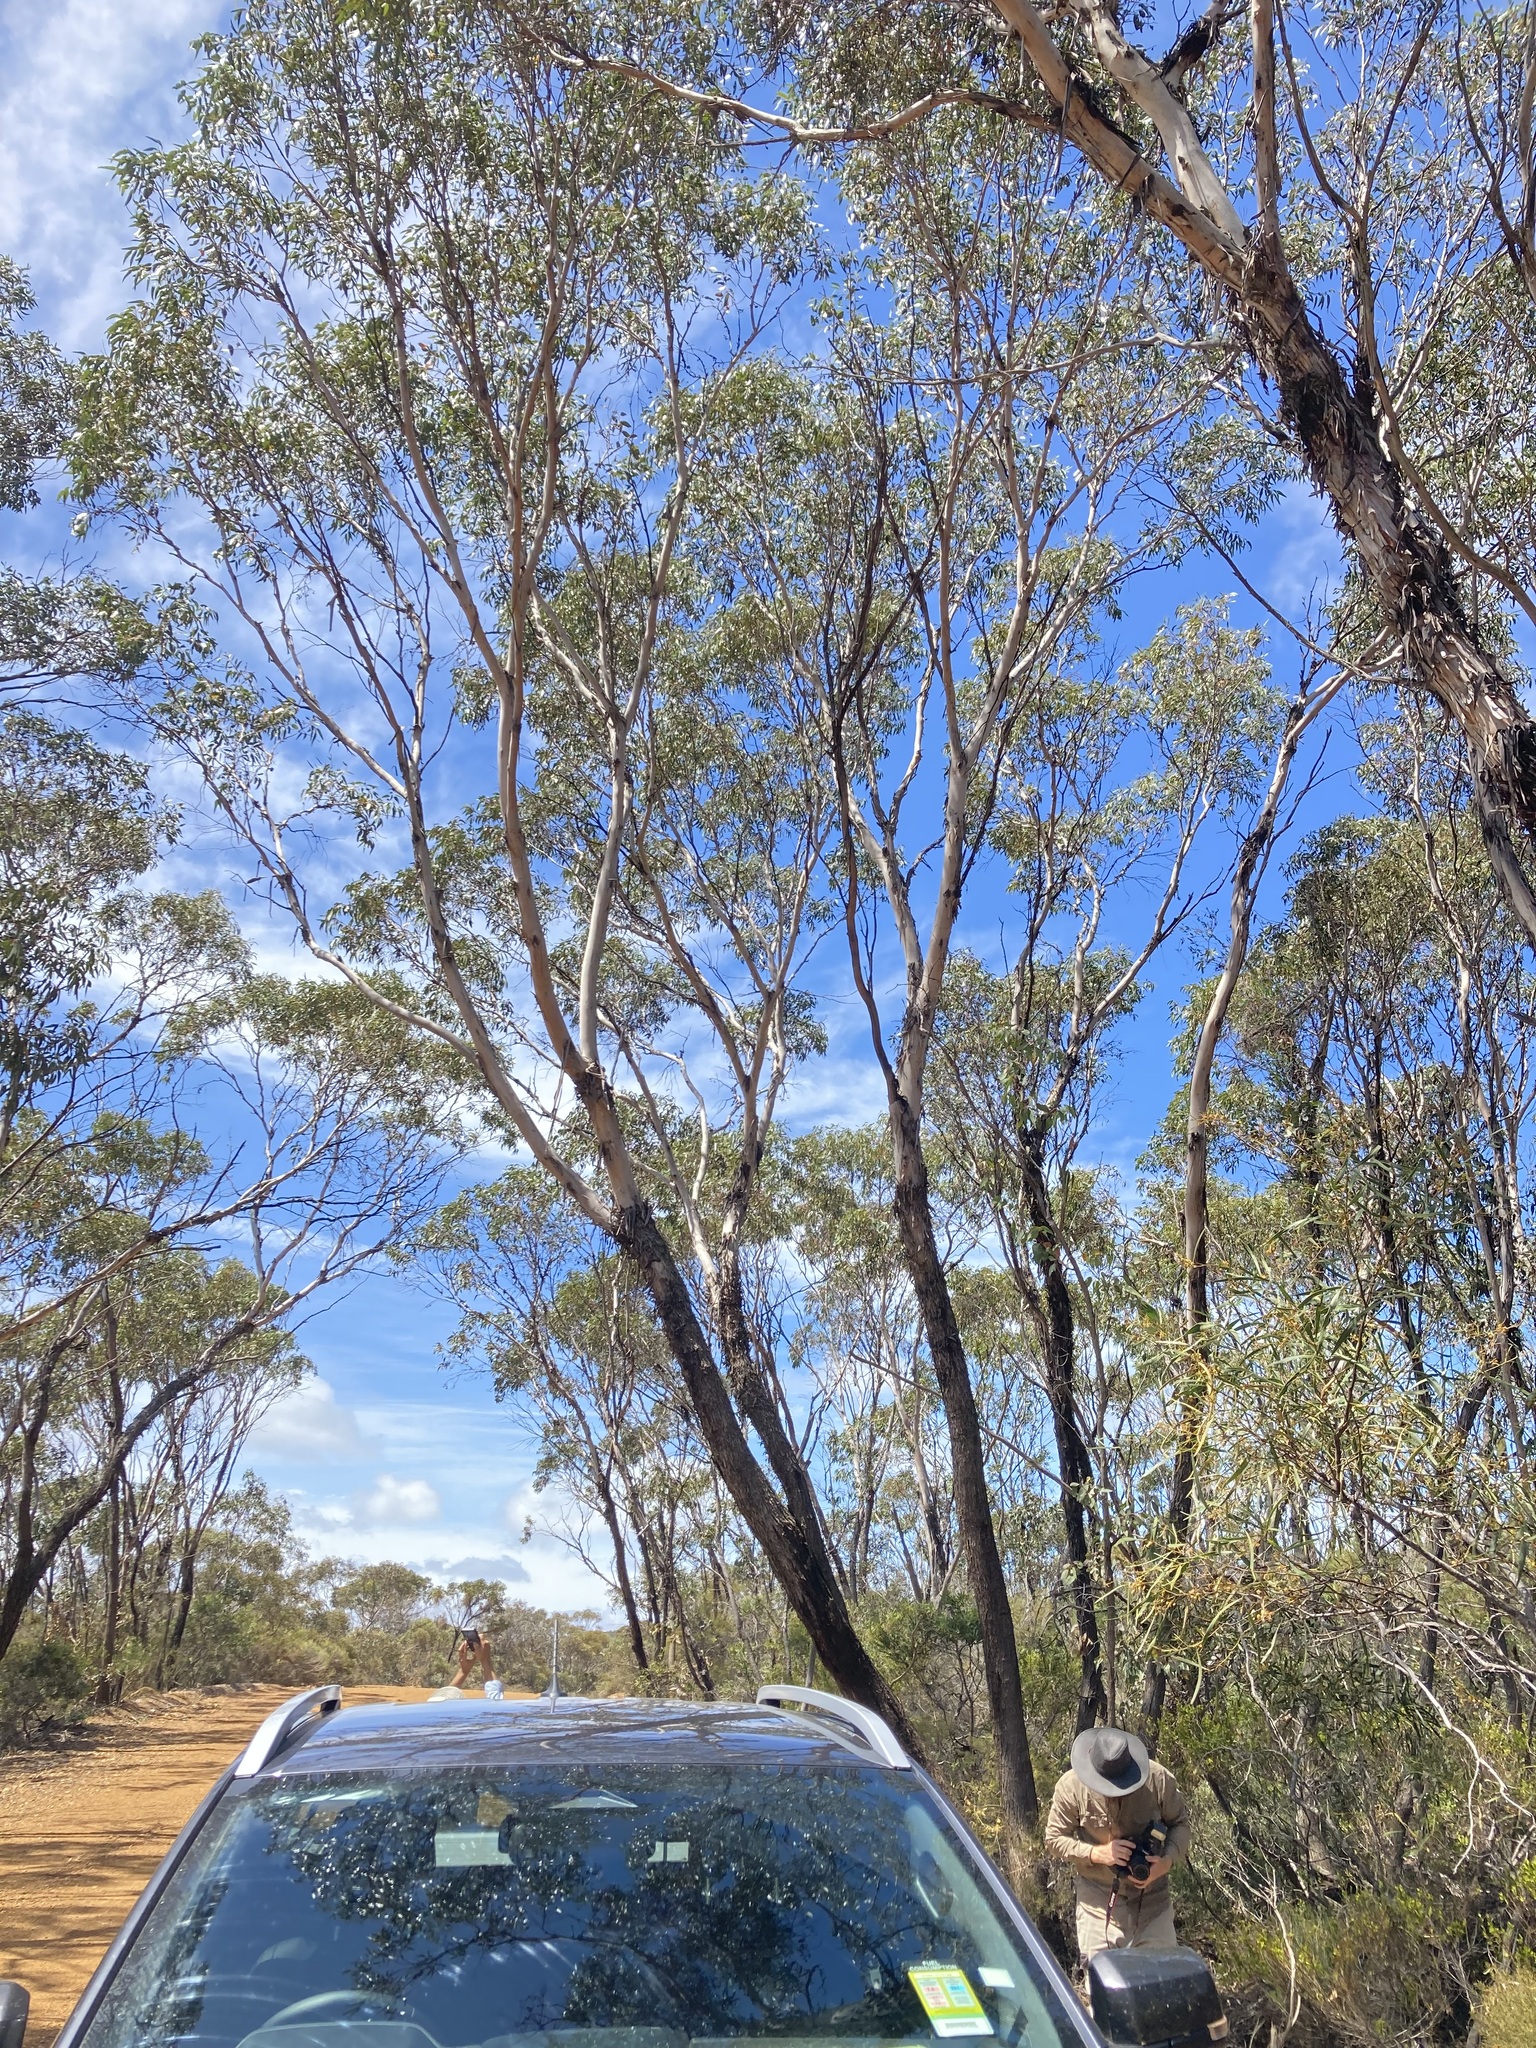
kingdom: Plantae
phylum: Tracheophyta
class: Magnoliopsida
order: Myrtales
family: Myrtaceae
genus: Eucalyptus
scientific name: Eucalyptus occidentalis
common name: Swamp yate
